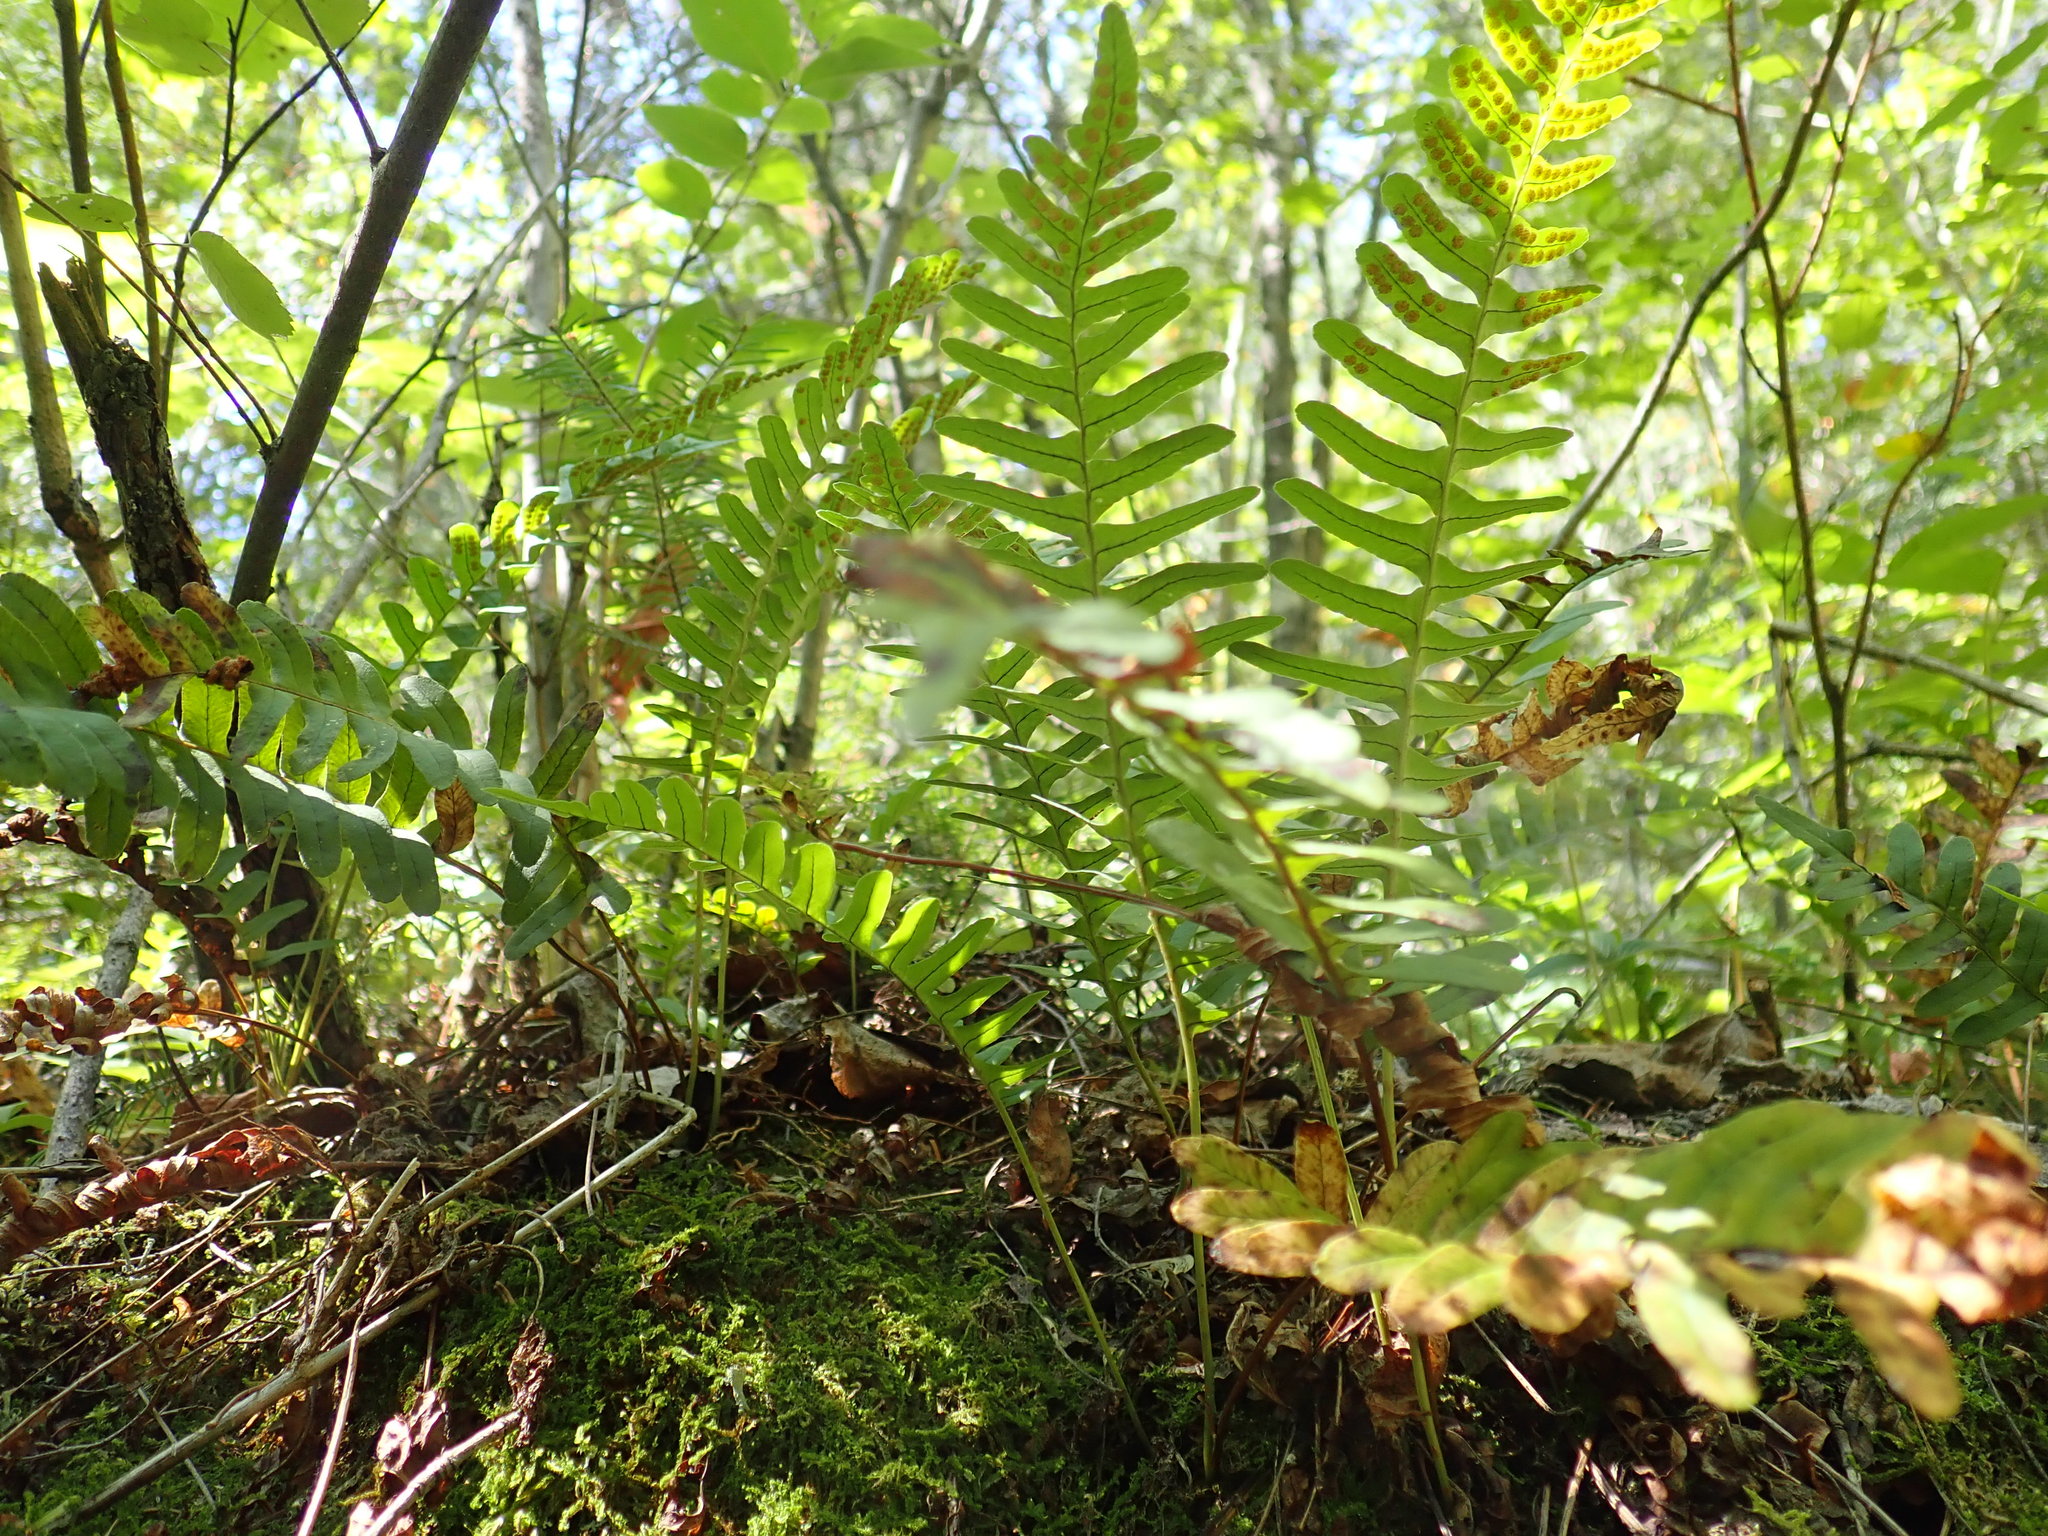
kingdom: Plantae
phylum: Tracheophyta
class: Polypodiopsida
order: Polypodiales
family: Polypodiaceae
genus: Polypodium
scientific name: Polypodium virginianum
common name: American wall fern
